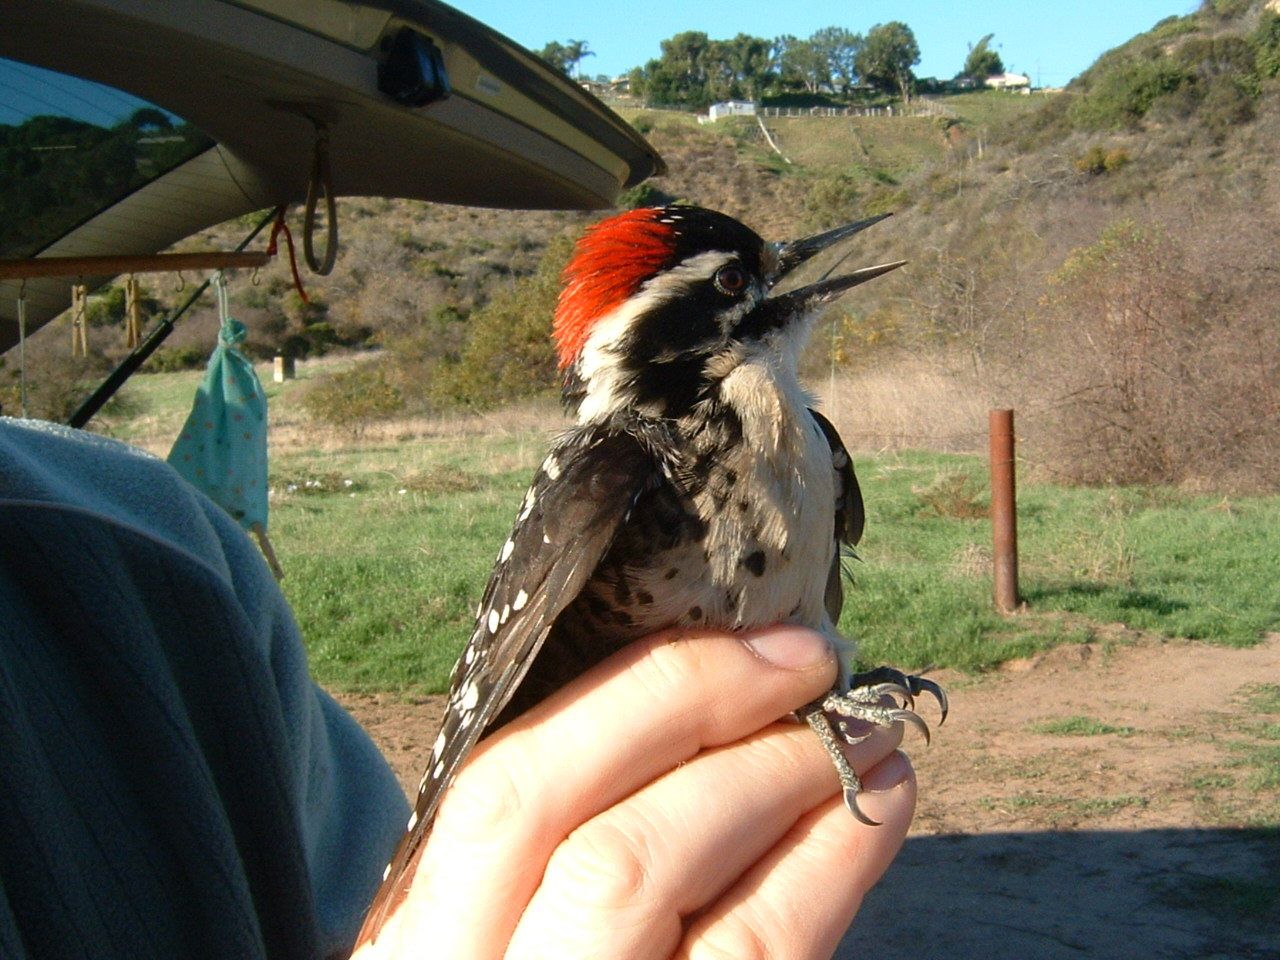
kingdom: Animalia
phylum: Chordata
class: Aves
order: Piciformes
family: Picidae
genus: Dryobates
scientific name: Dryobates nuttallii
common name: Nuttall's woodpecker
